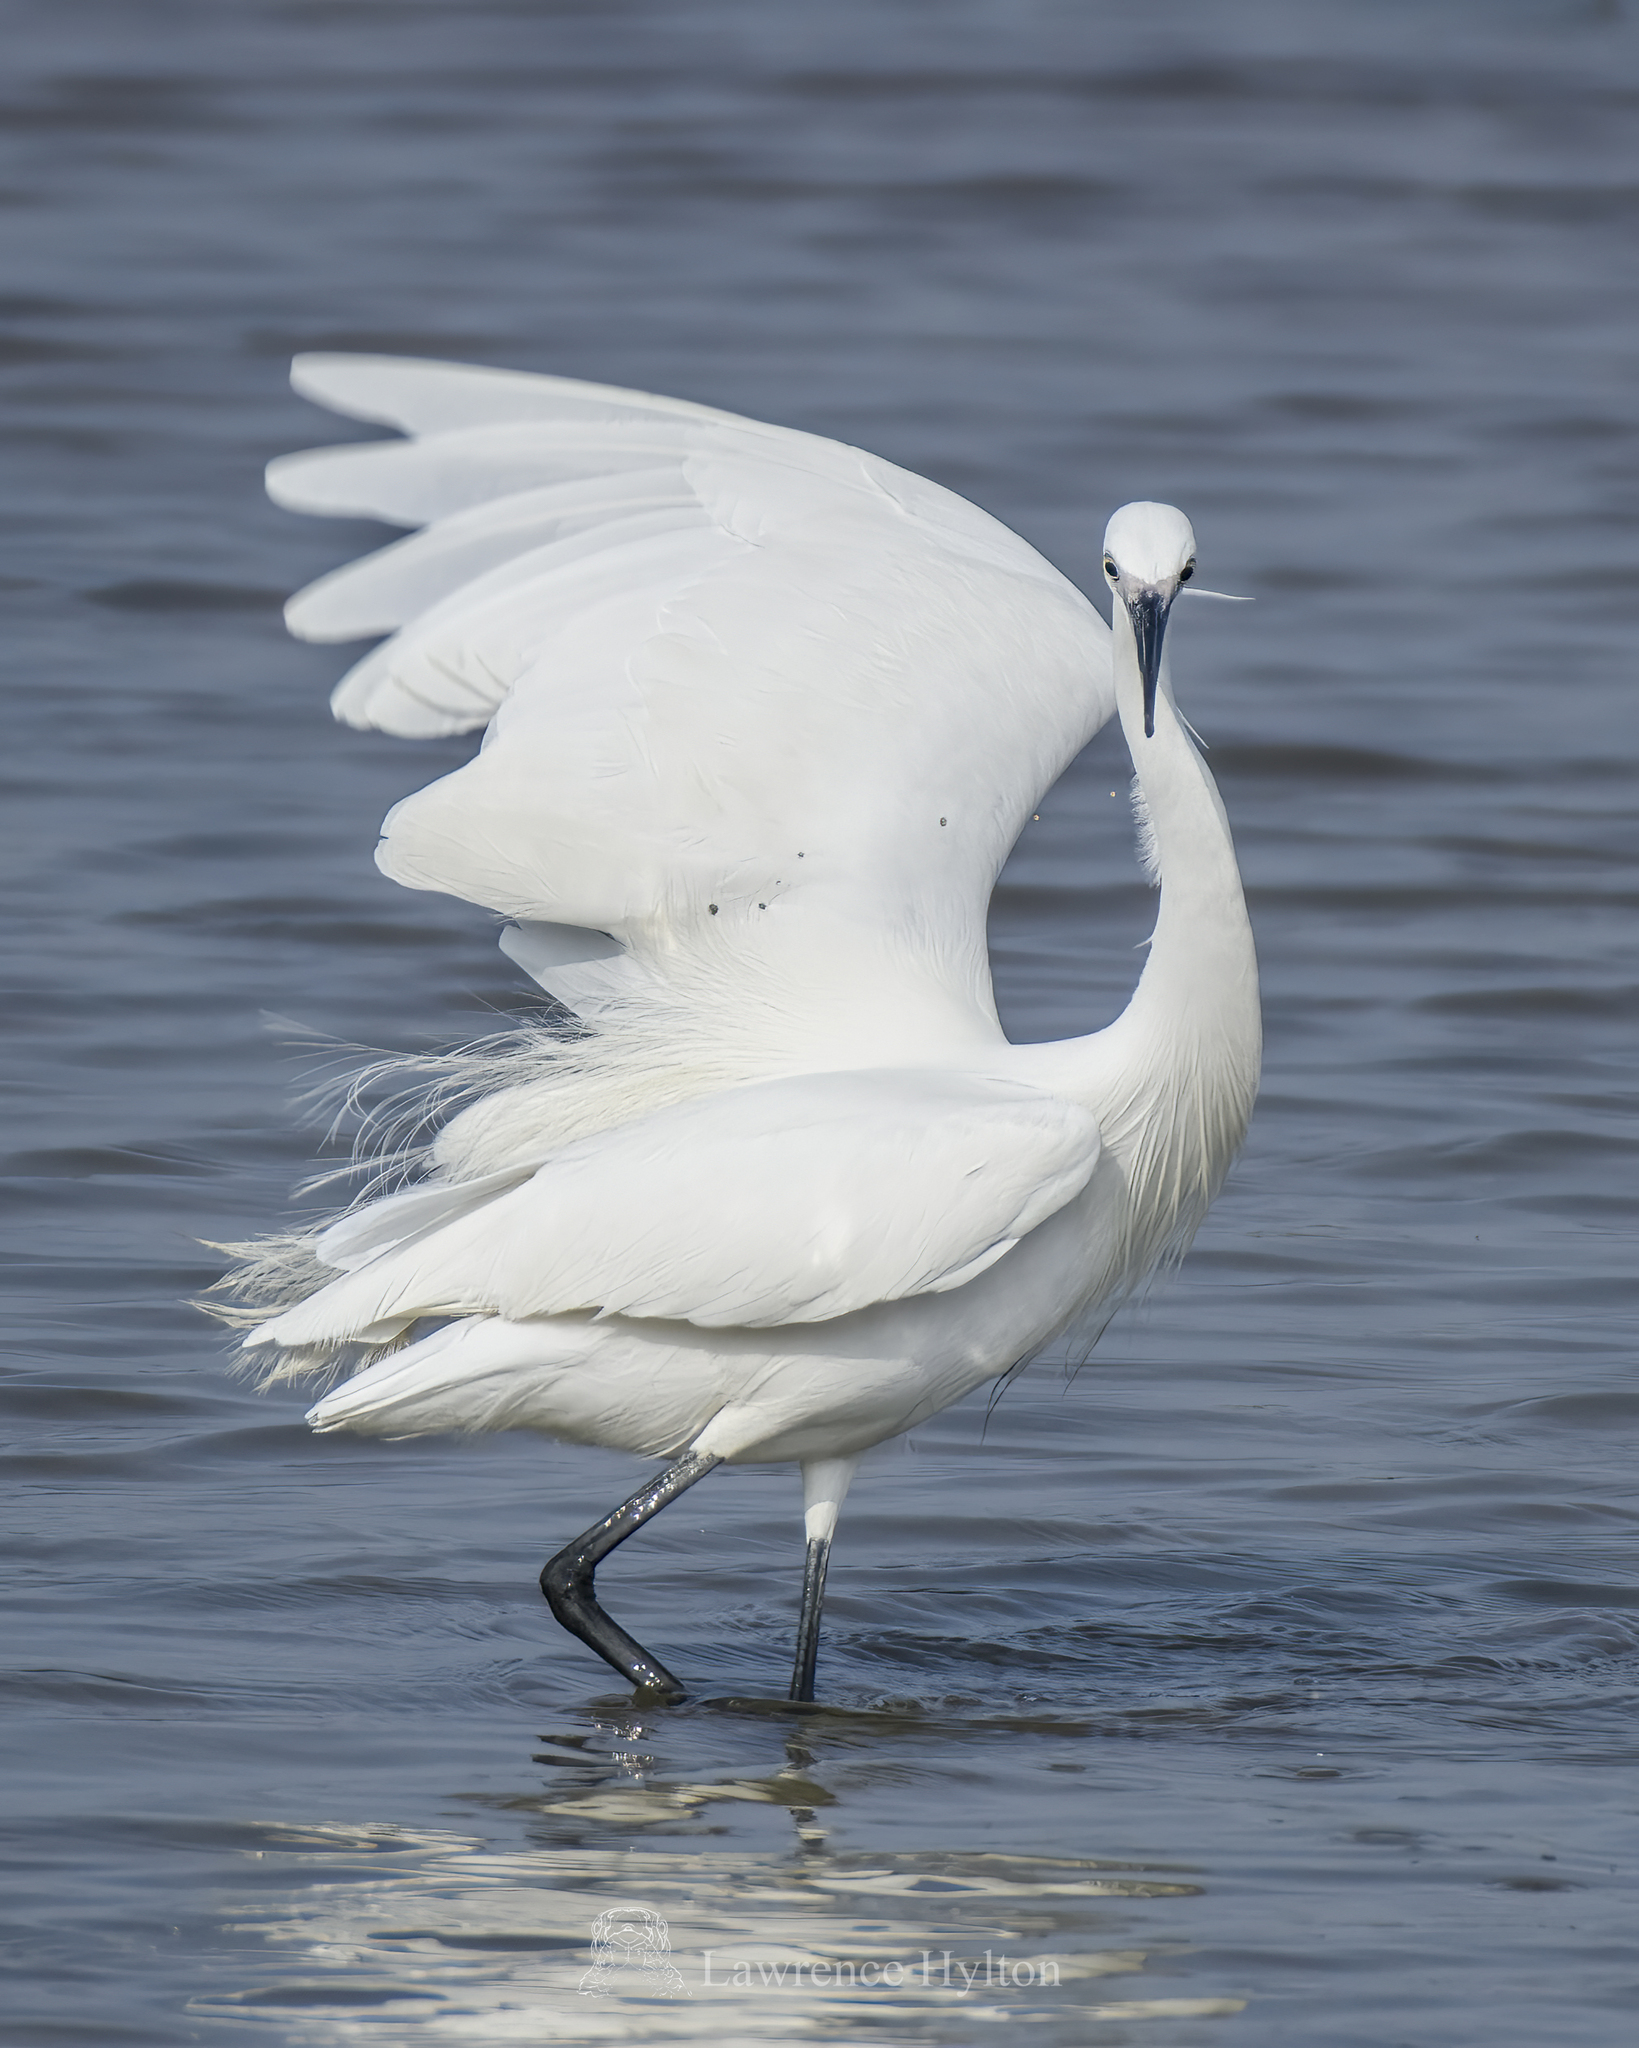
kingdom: Animalia
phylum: Chordata
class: Aves
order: Pelecaniformes
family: Ardeidae
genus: Egretta
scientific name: Egretta garzetta
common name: Little egret
